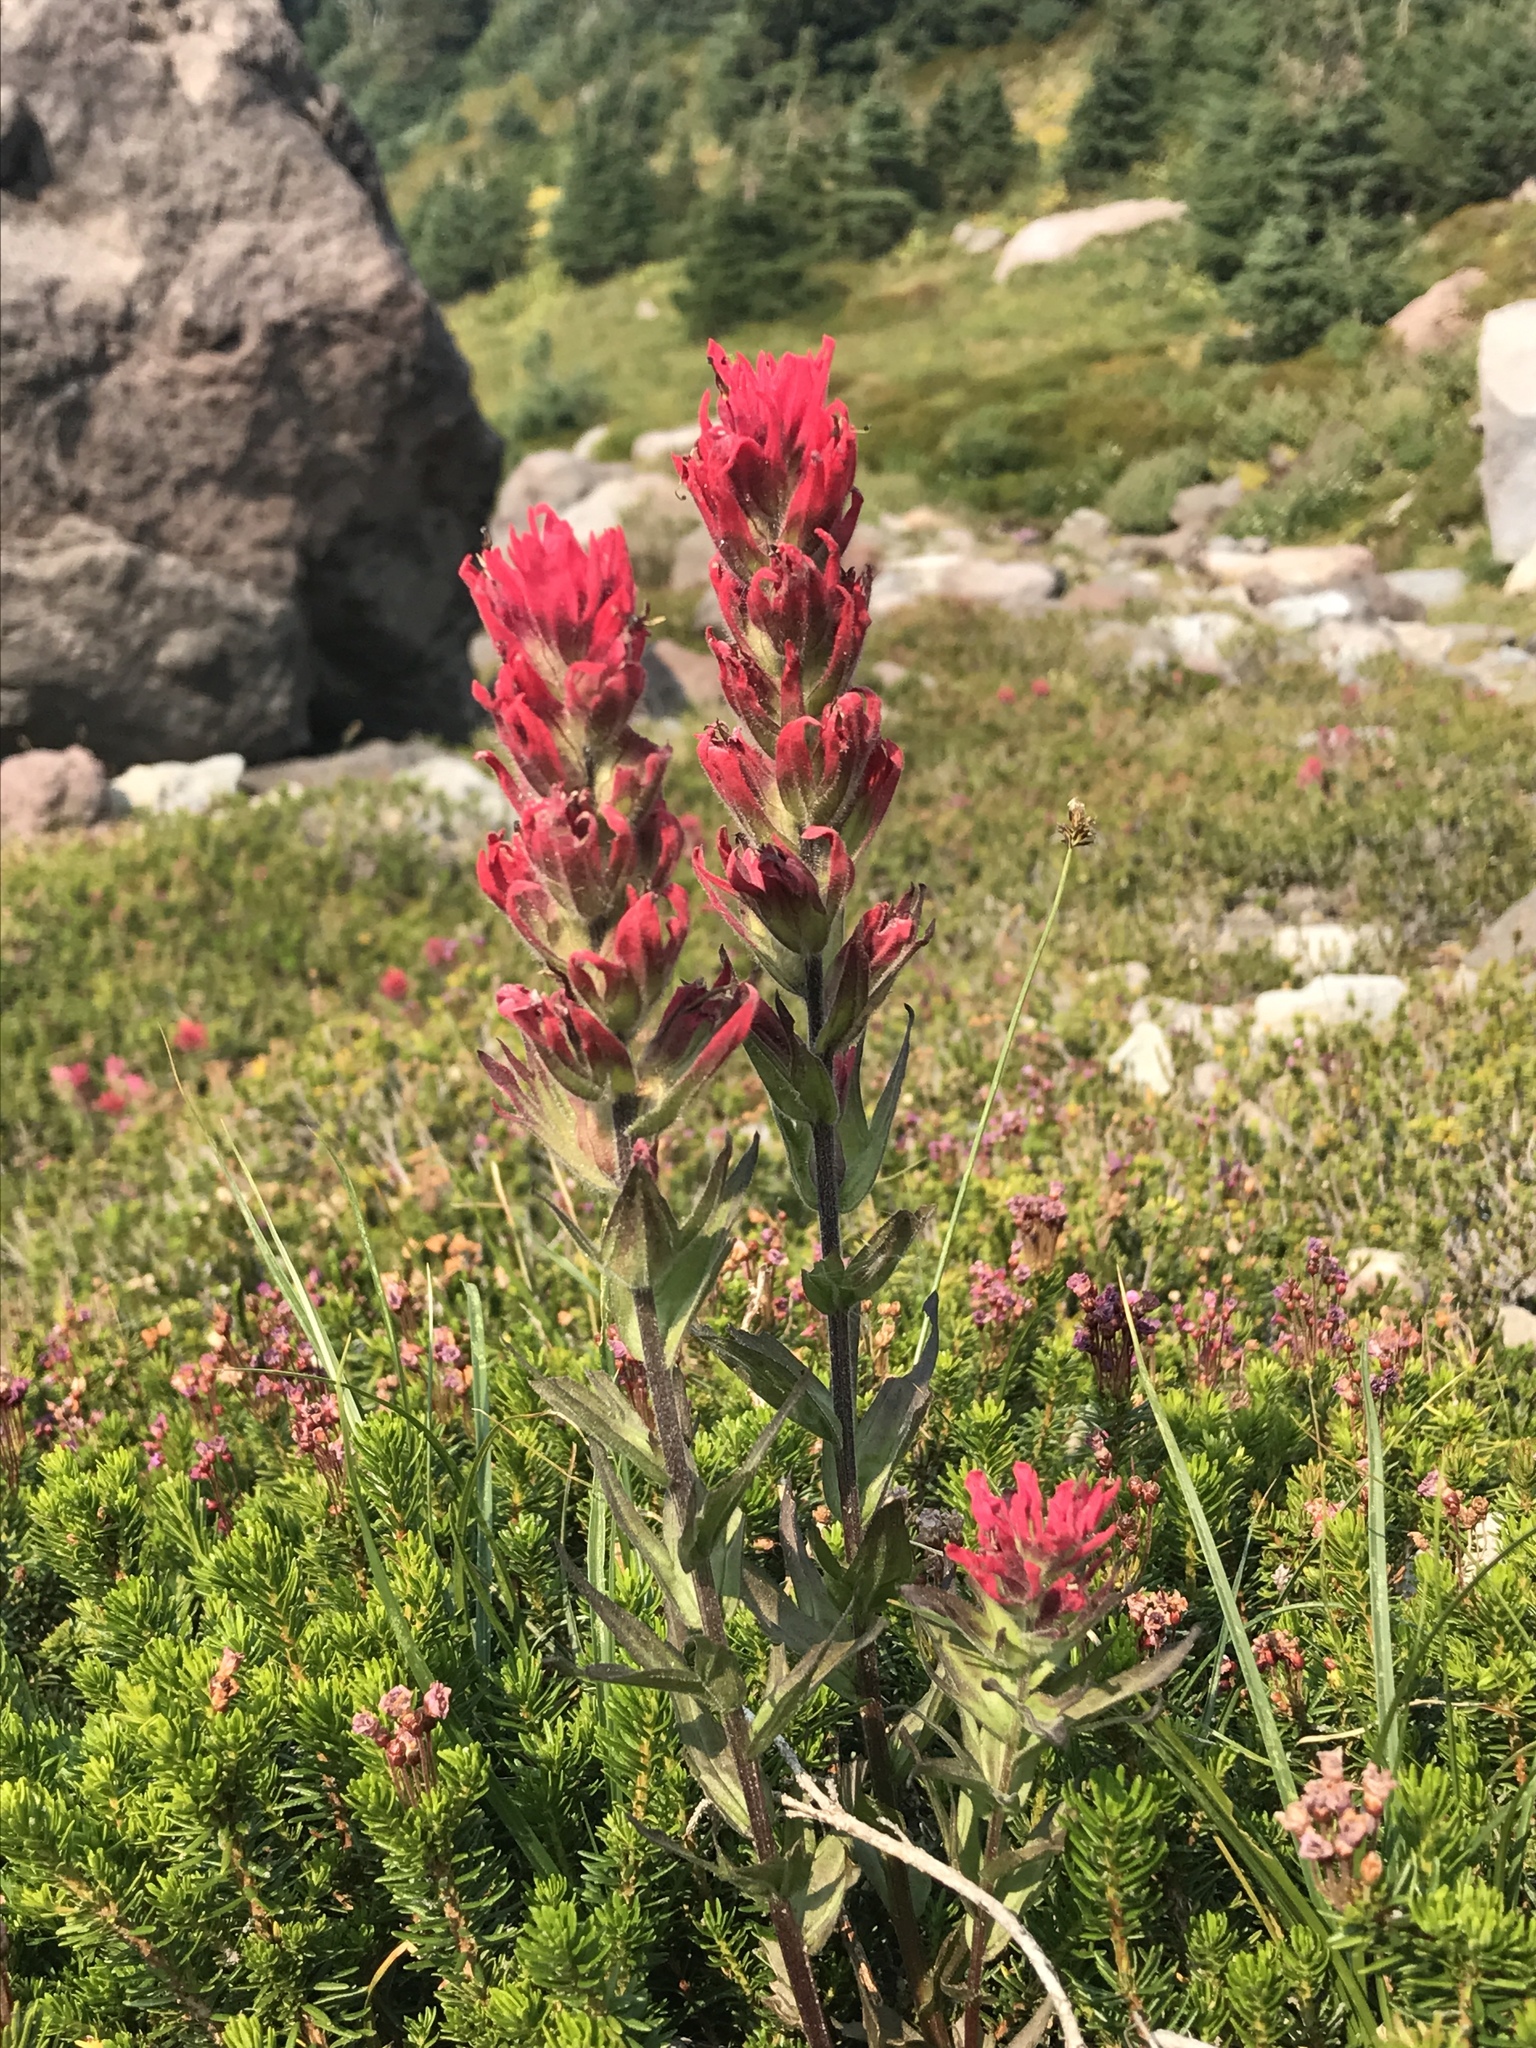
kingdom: Plantae
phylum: Tracheophyta
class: Magnoliopsida
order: Lamiales
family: Orobanchaceae
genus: Castilleja
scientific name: Castilleja parviflora
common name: Mountain paintbrush
